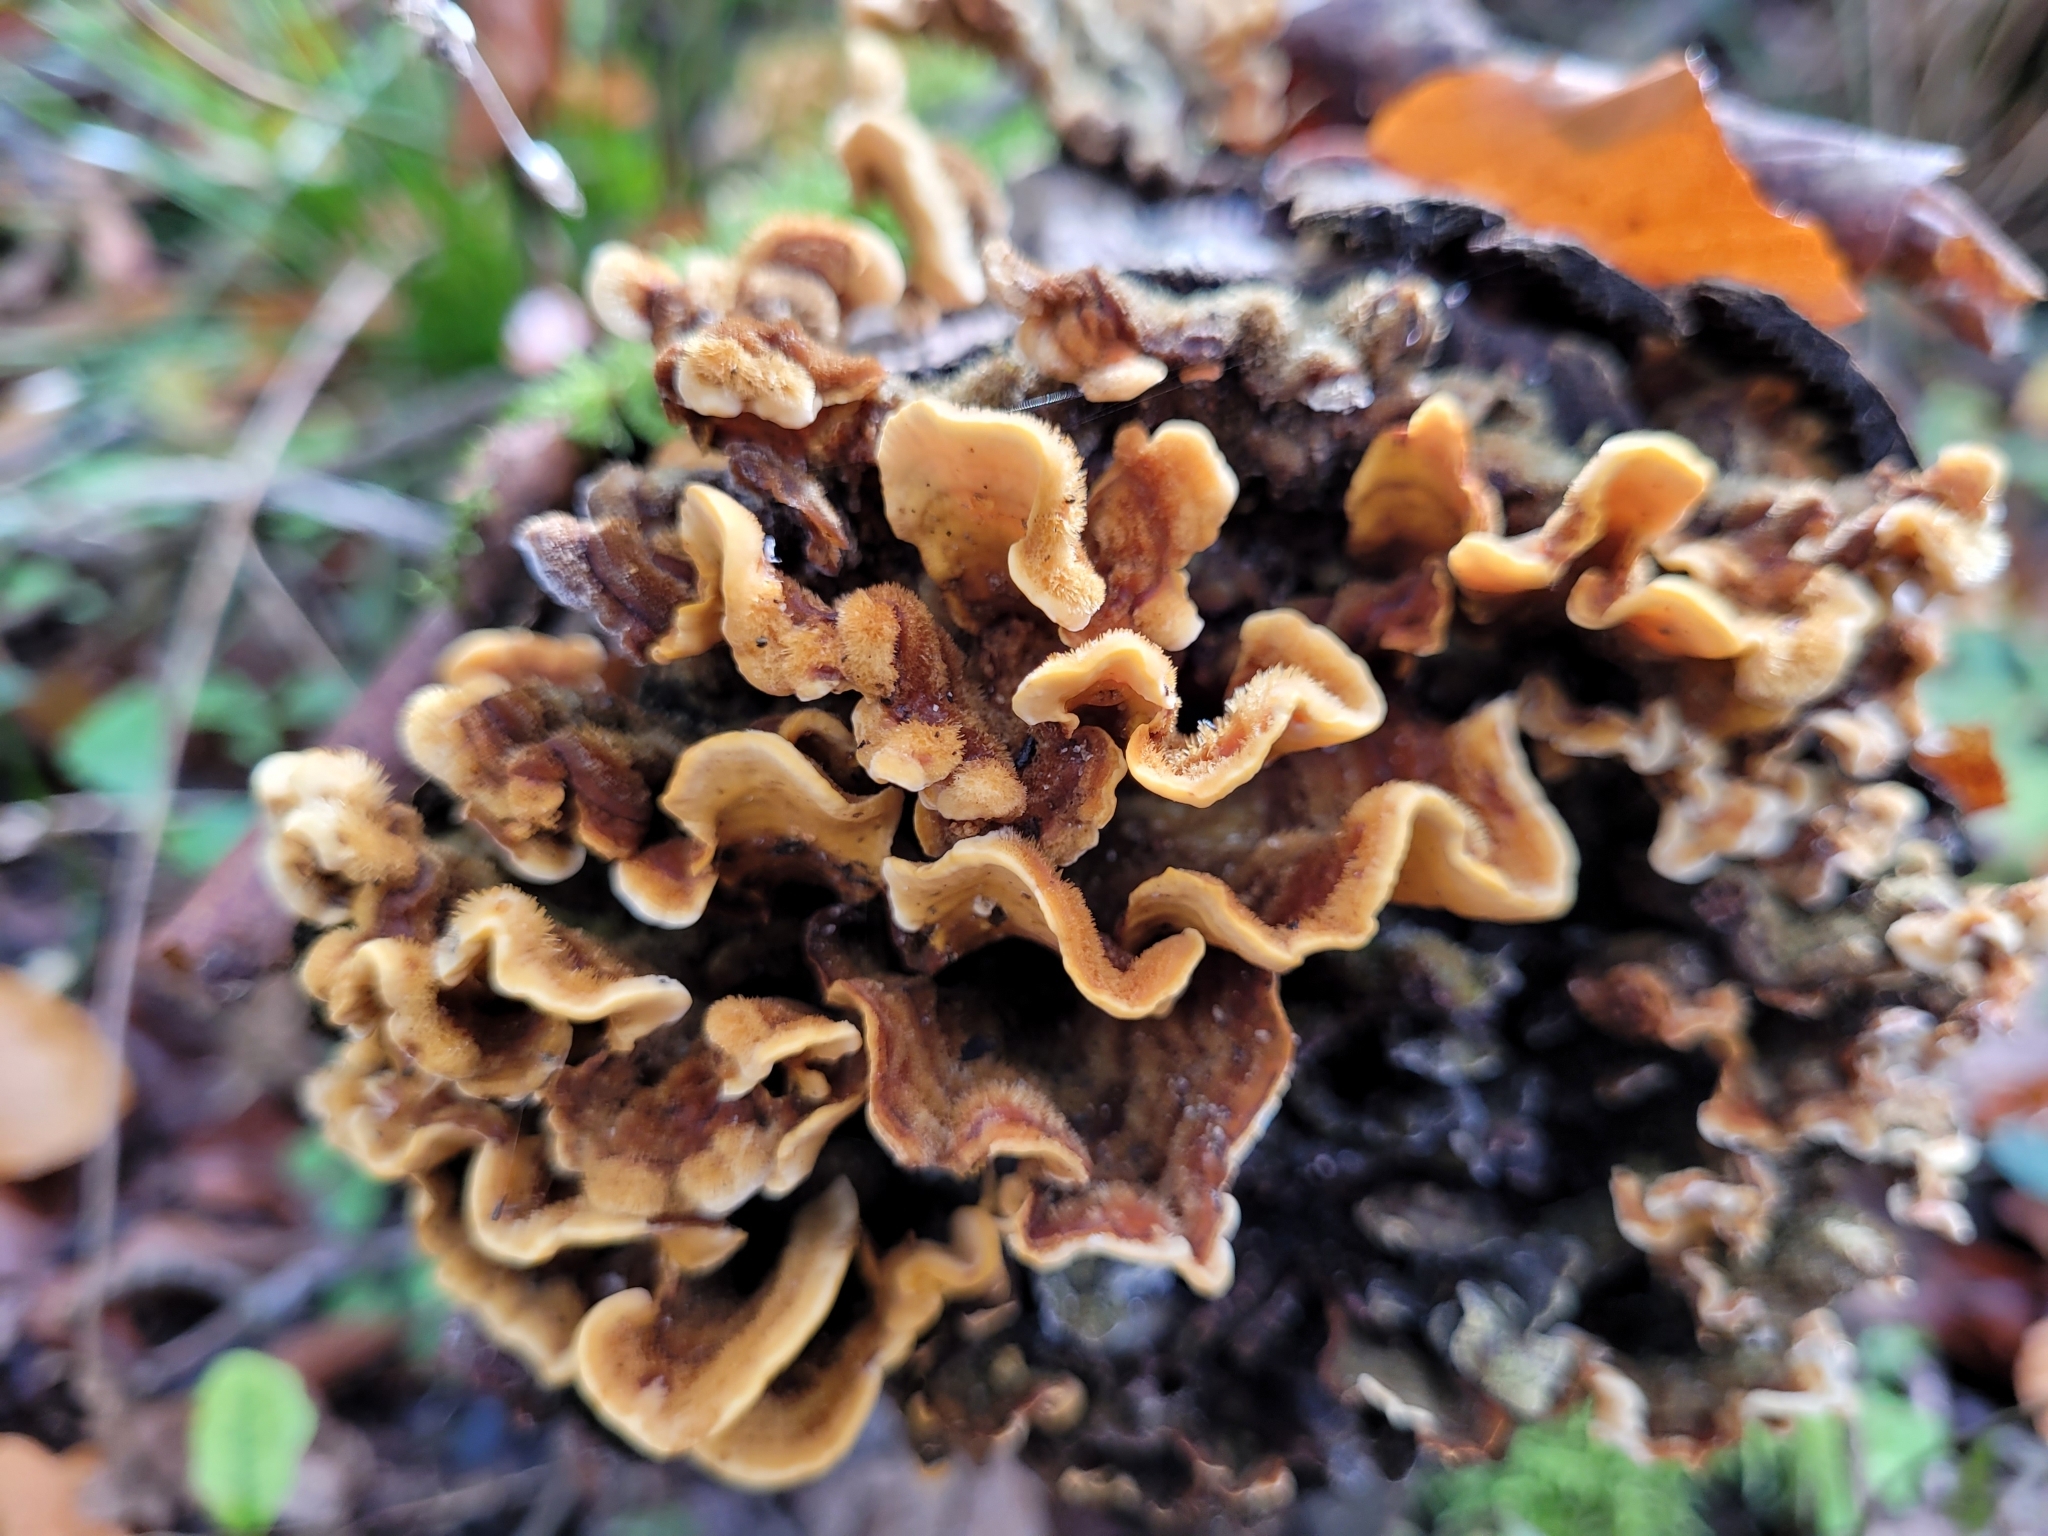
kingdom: Fungi
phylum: Basidiomycota
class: Agaricomycetes
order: Russulales
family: Stereaceae
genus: Stereum
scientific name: Stereum hirsutum
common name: Hairy curtain crust
